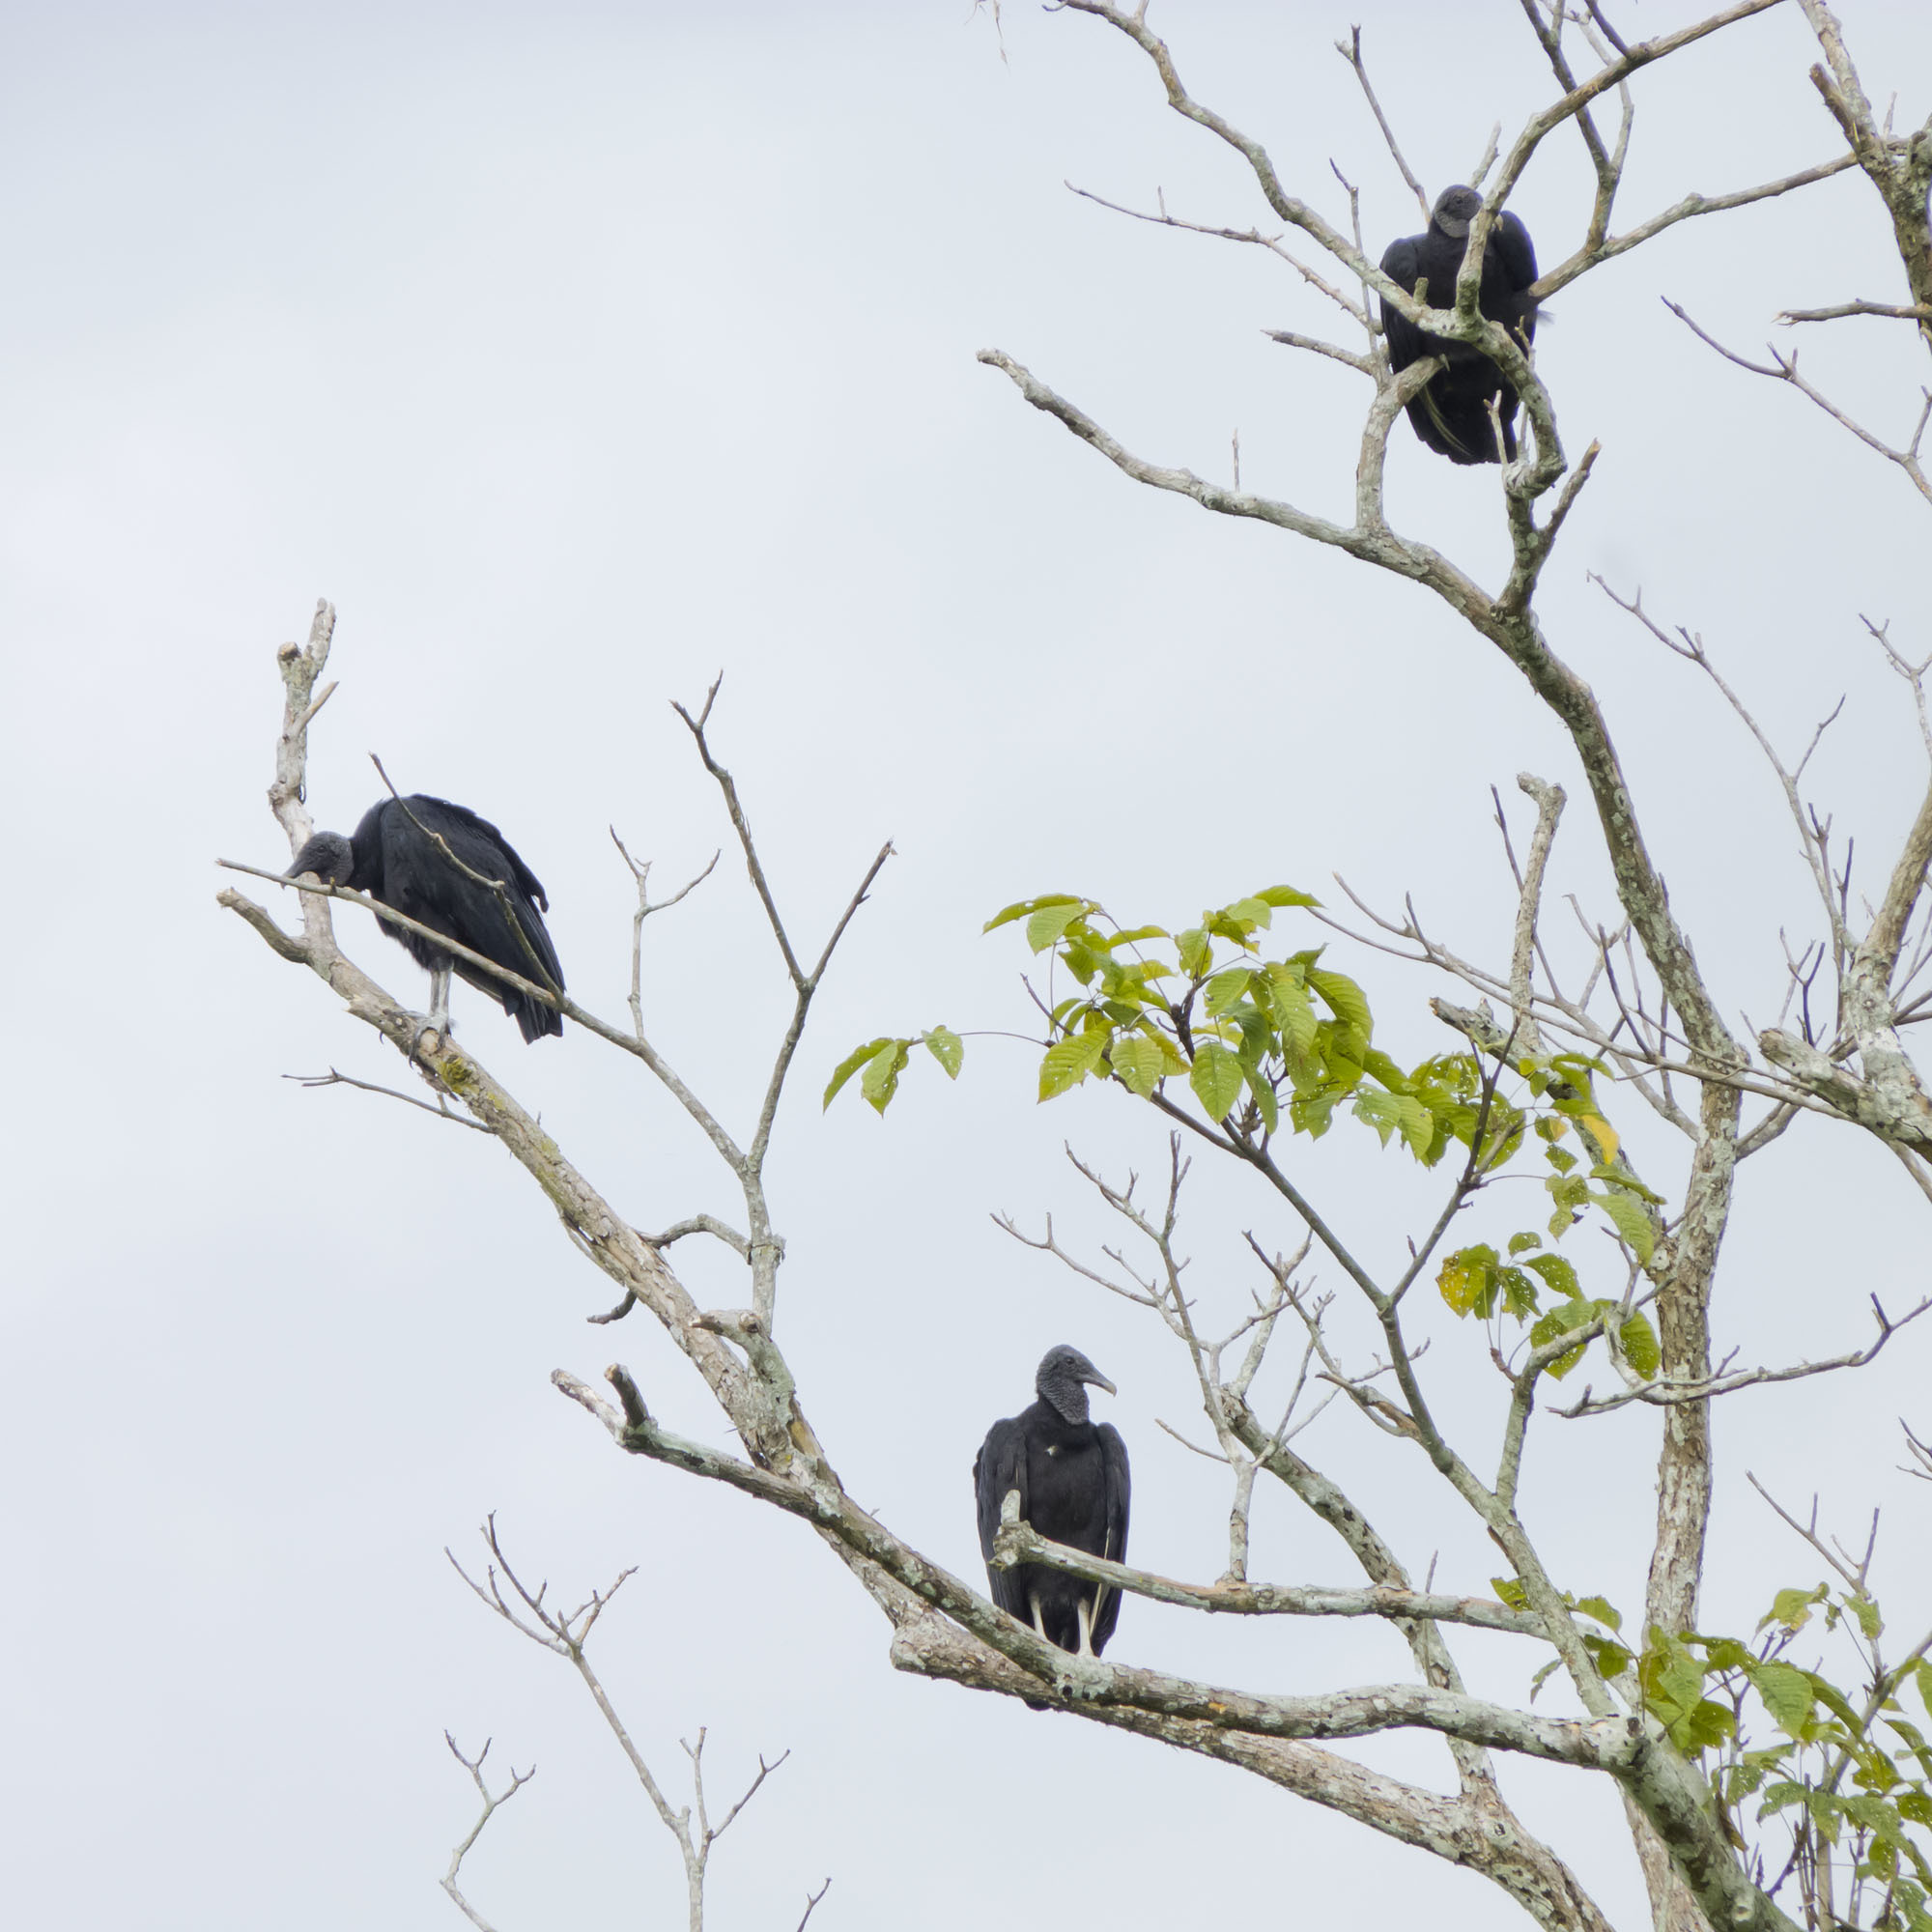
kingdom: Animalia
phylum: Chordata
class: Aves
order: Accipitriformes
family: Cathartidae
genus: Coragyps
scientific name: Coragyps atratus
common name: Black vulture
